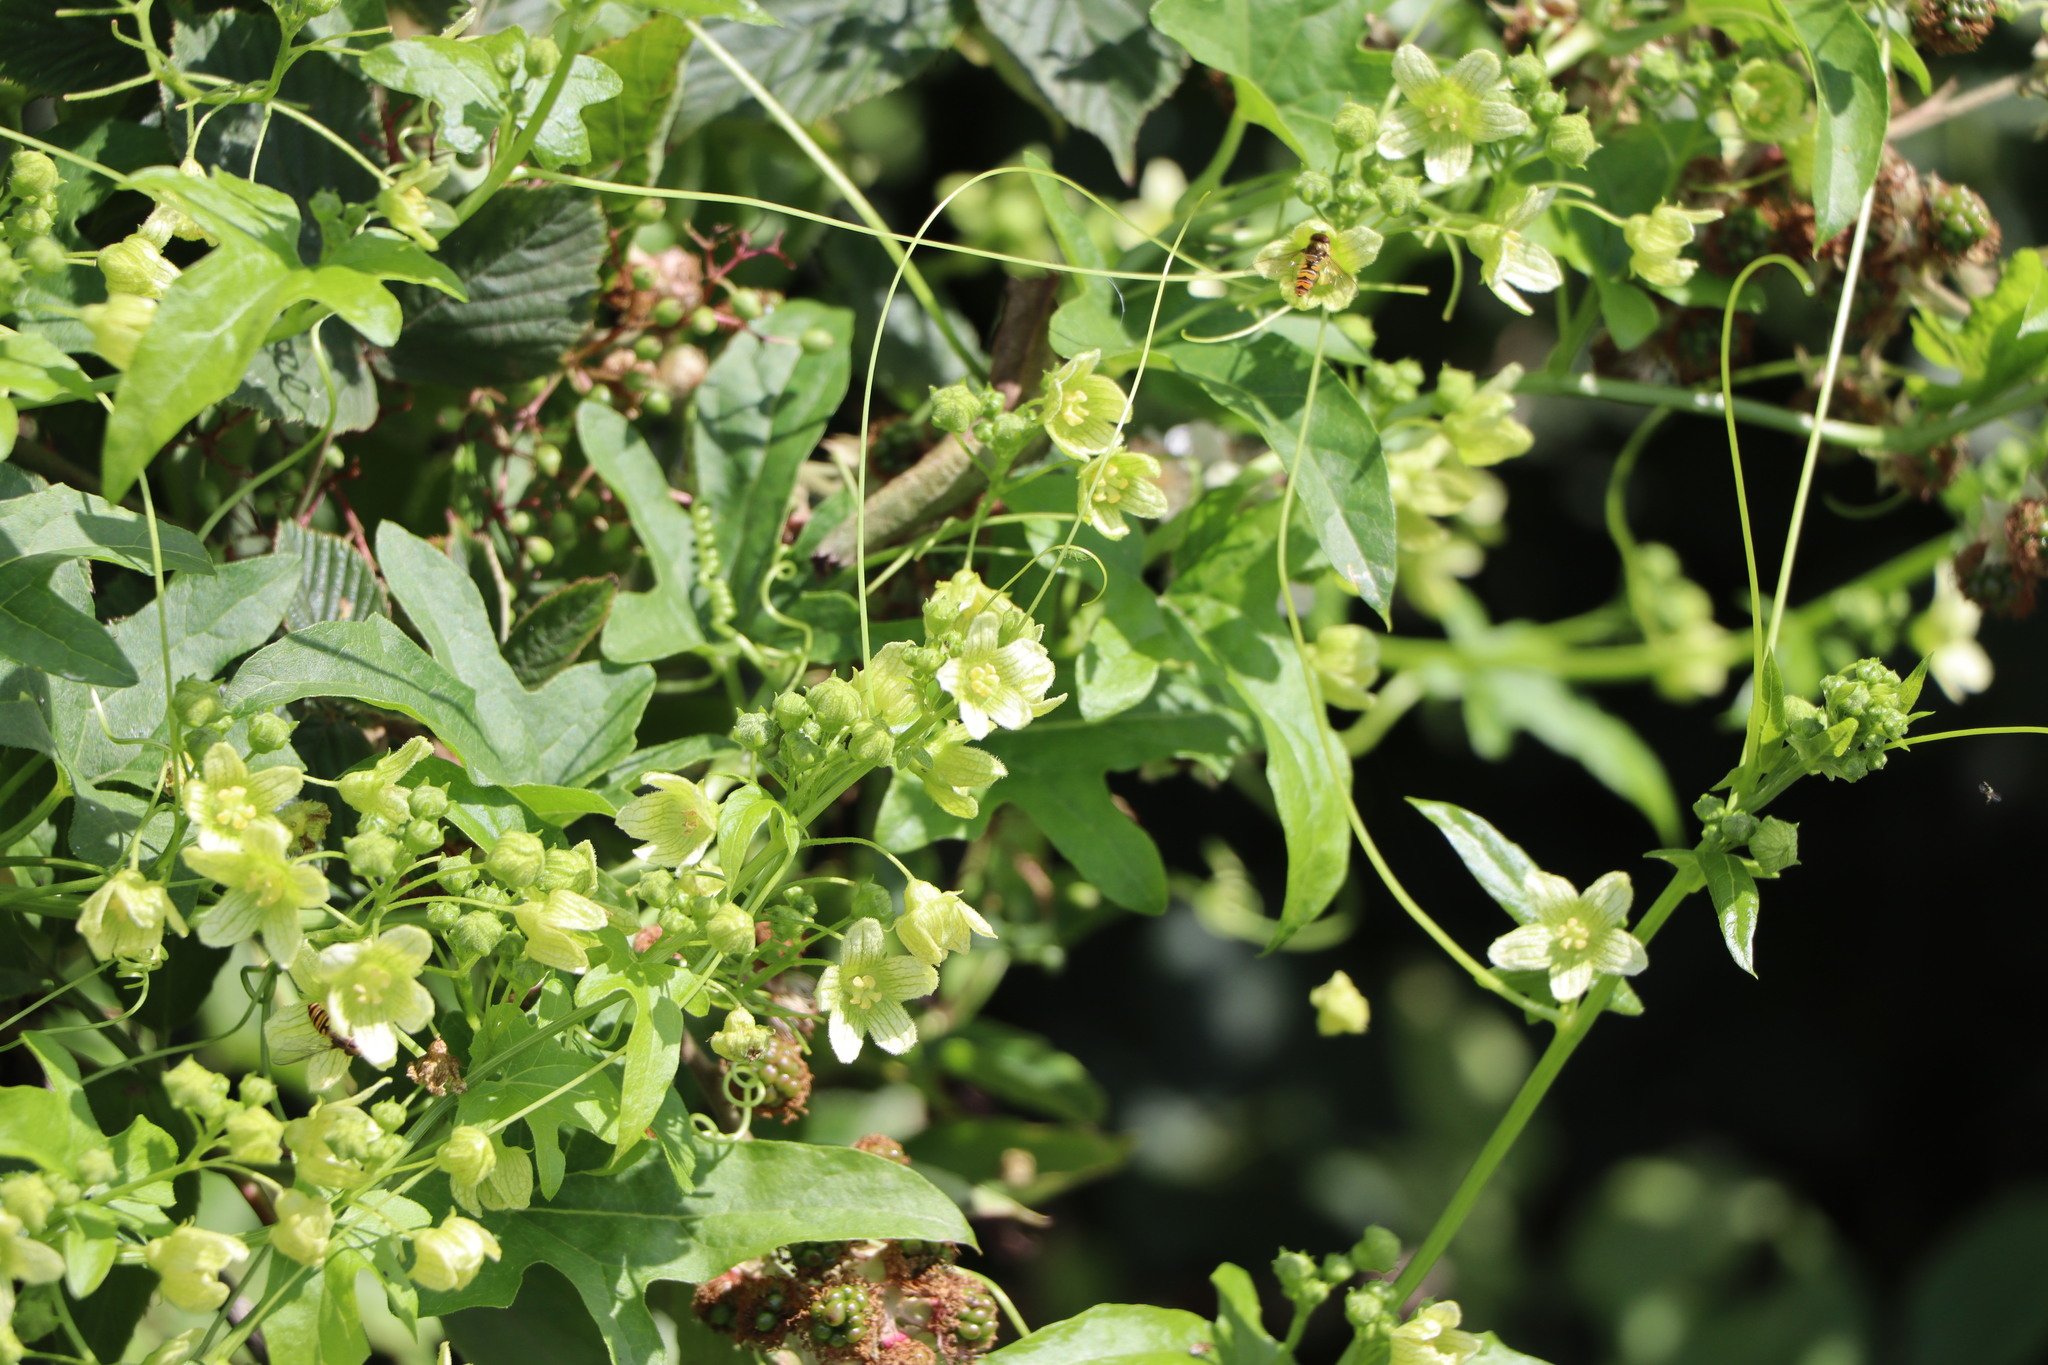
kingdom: Plantae
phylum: Tracheophyta
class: Magnoliopsida
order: Cucurbitales
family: Cucurbitaceae
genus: Bryonia
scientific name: Bryonia cretica
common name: Cretan bryony
